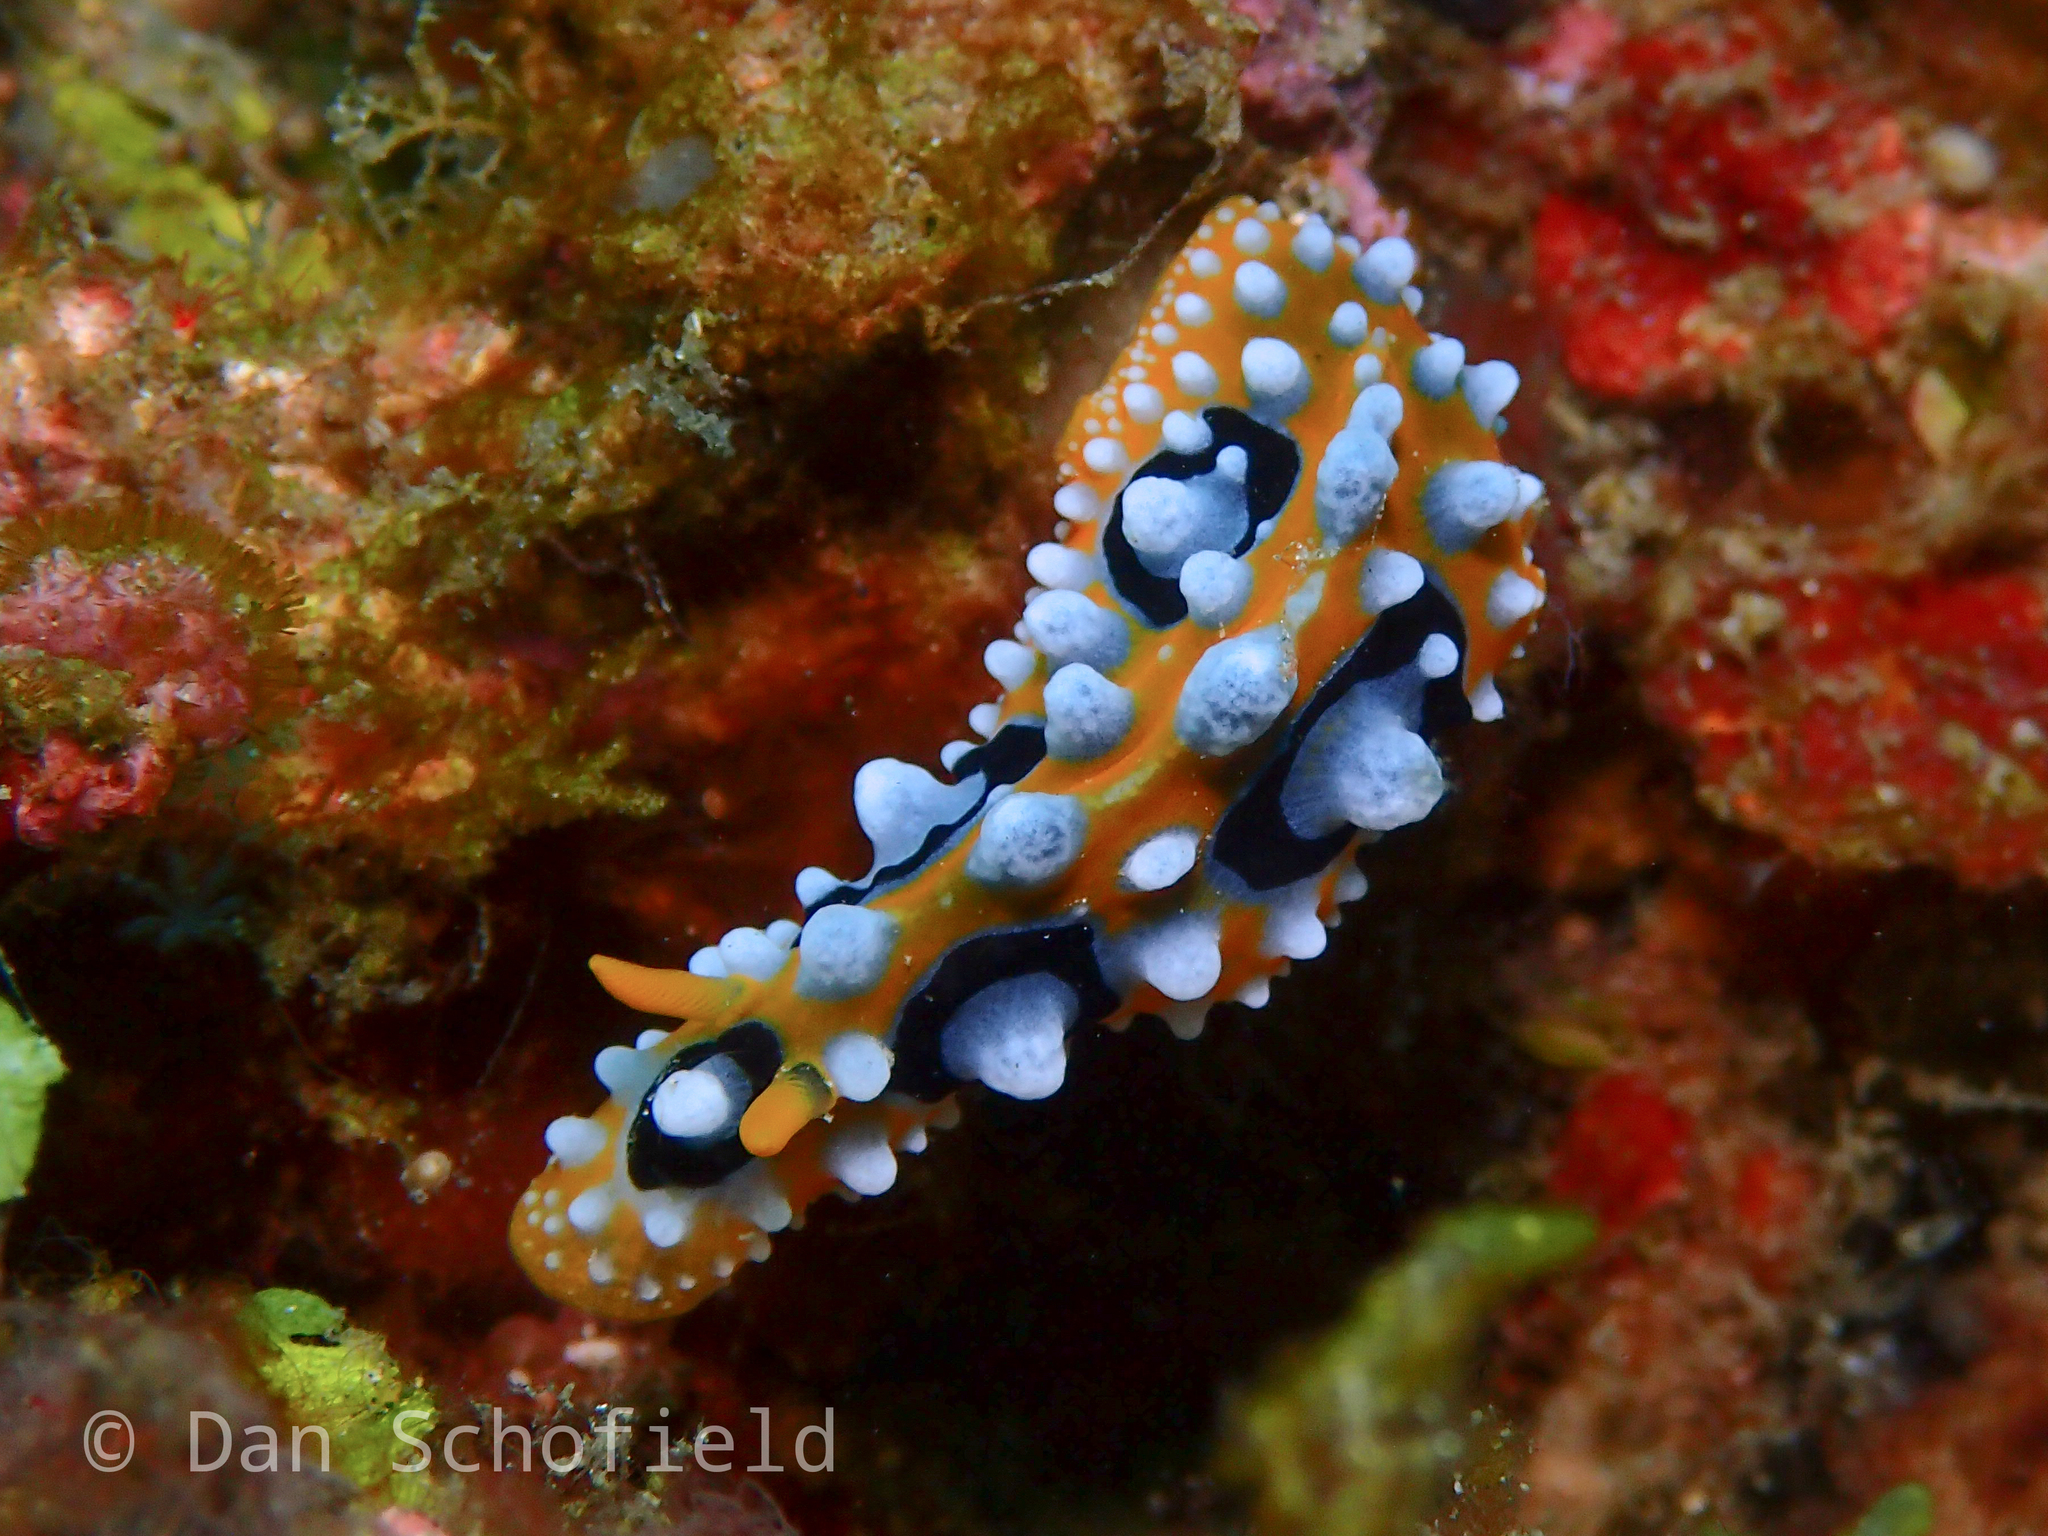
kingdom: Animalia
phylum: Mollusca
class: Gastropoda
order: Nudibranchia
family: Phyllidiidae
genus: Phyllidia
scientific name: Phyllidia ocellata
